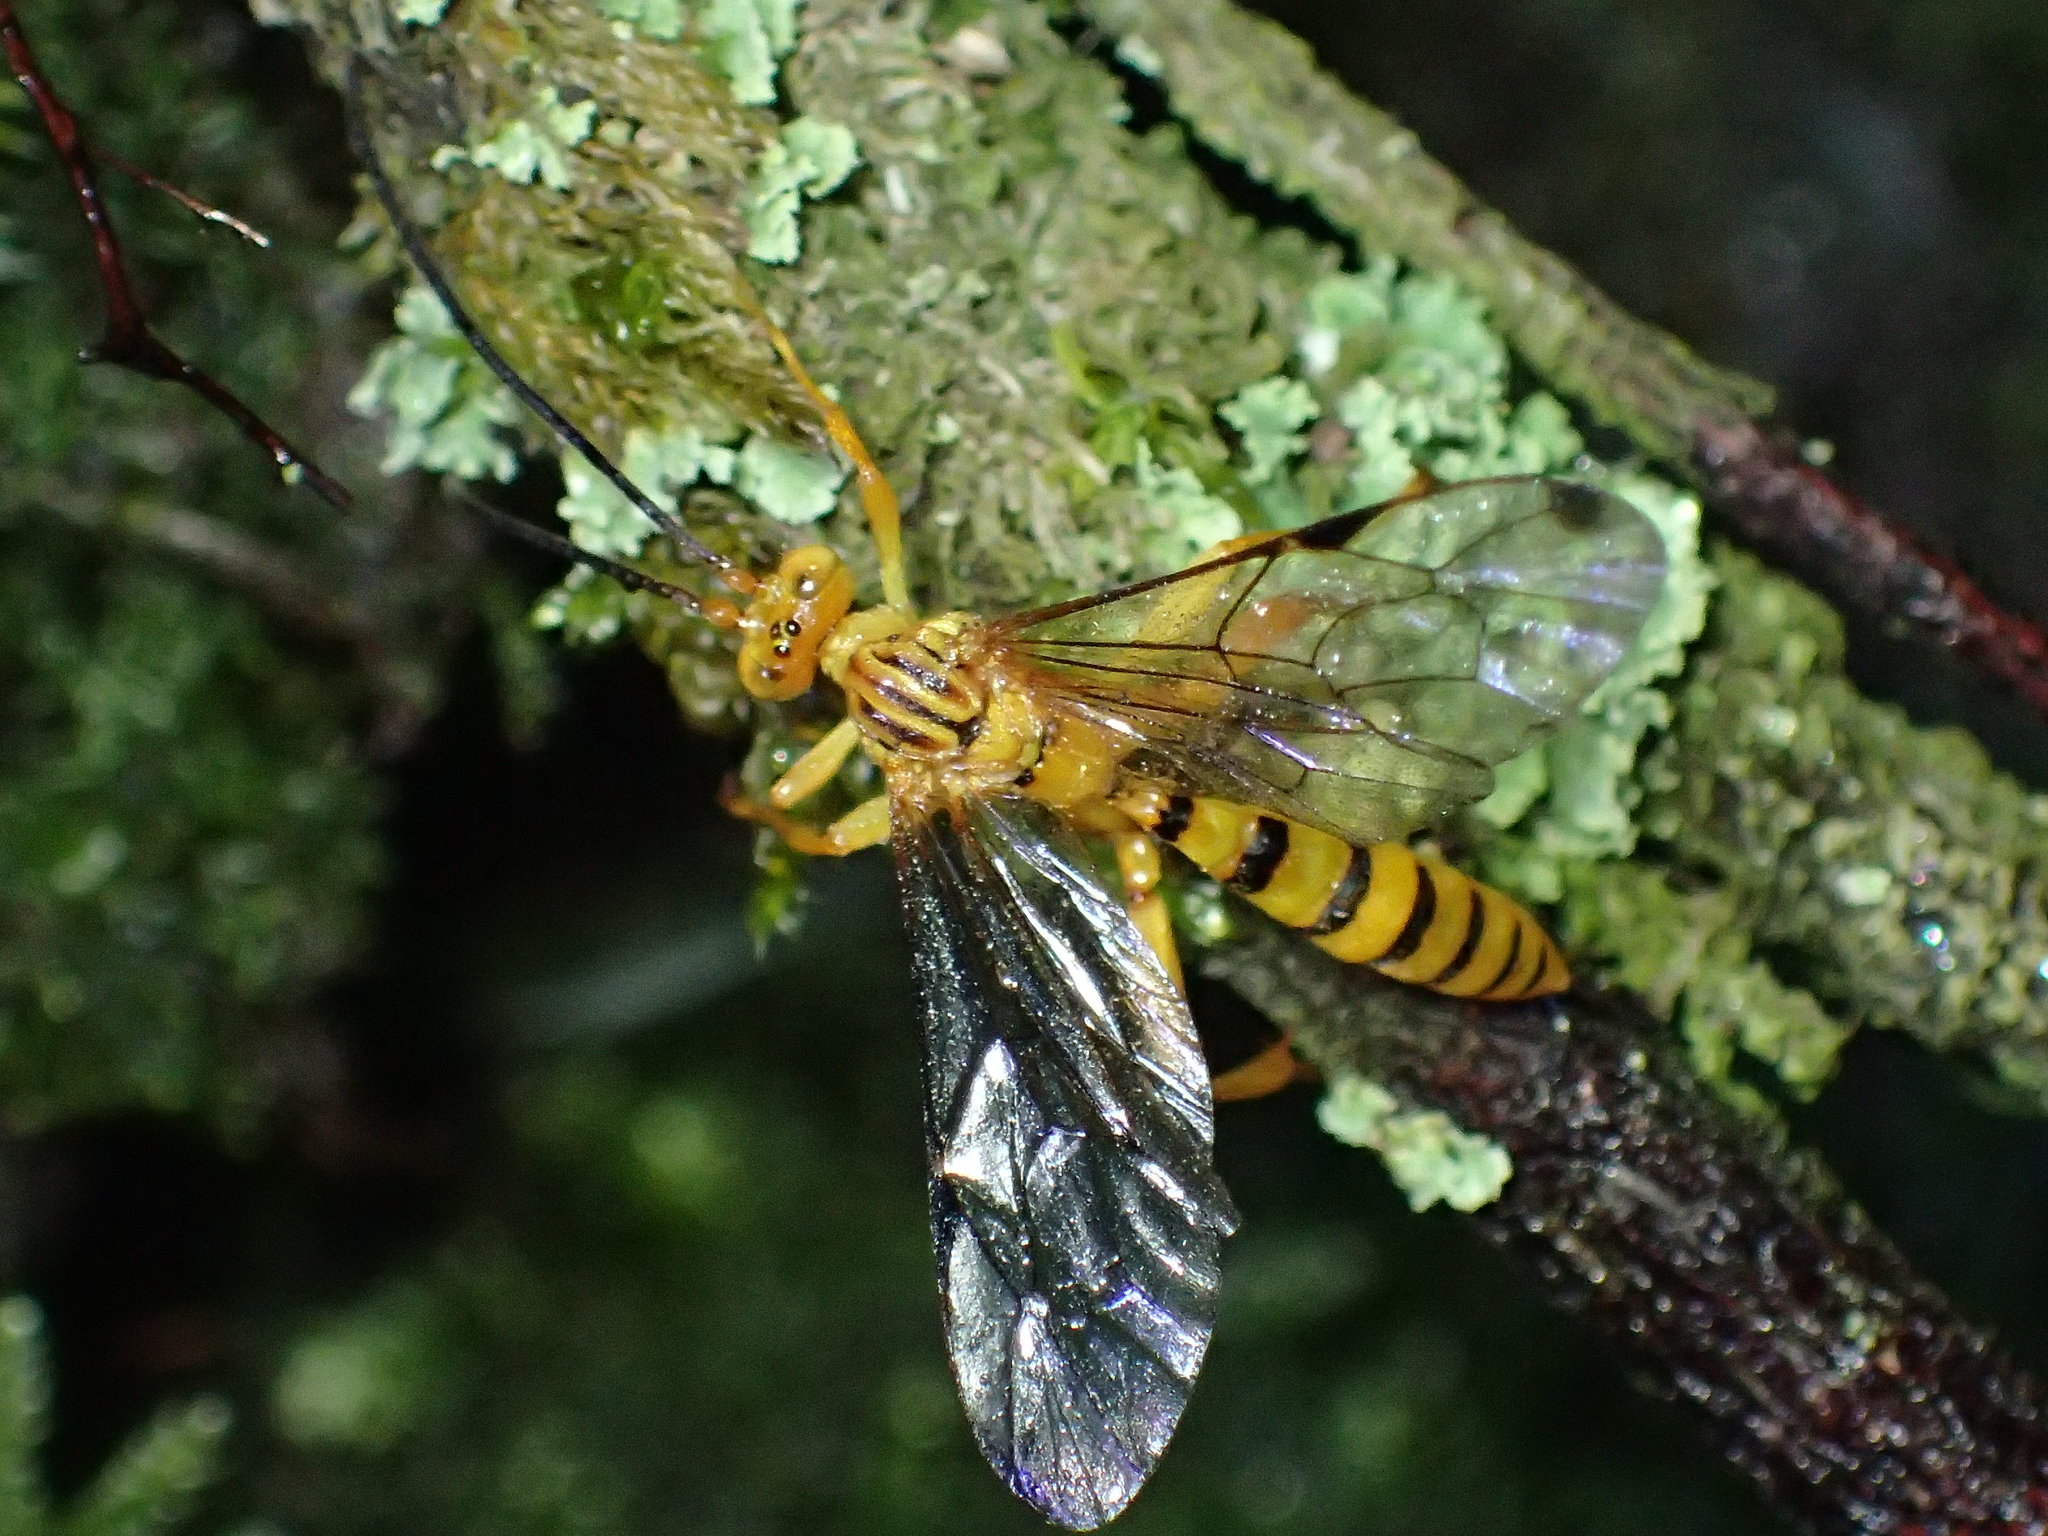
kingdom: Animalia
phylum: Arthropoda
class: Insecta
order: Hymenoptera
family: Ichneumonidae
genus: Neotheronia
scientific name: Neotheronia septemtrionalis
